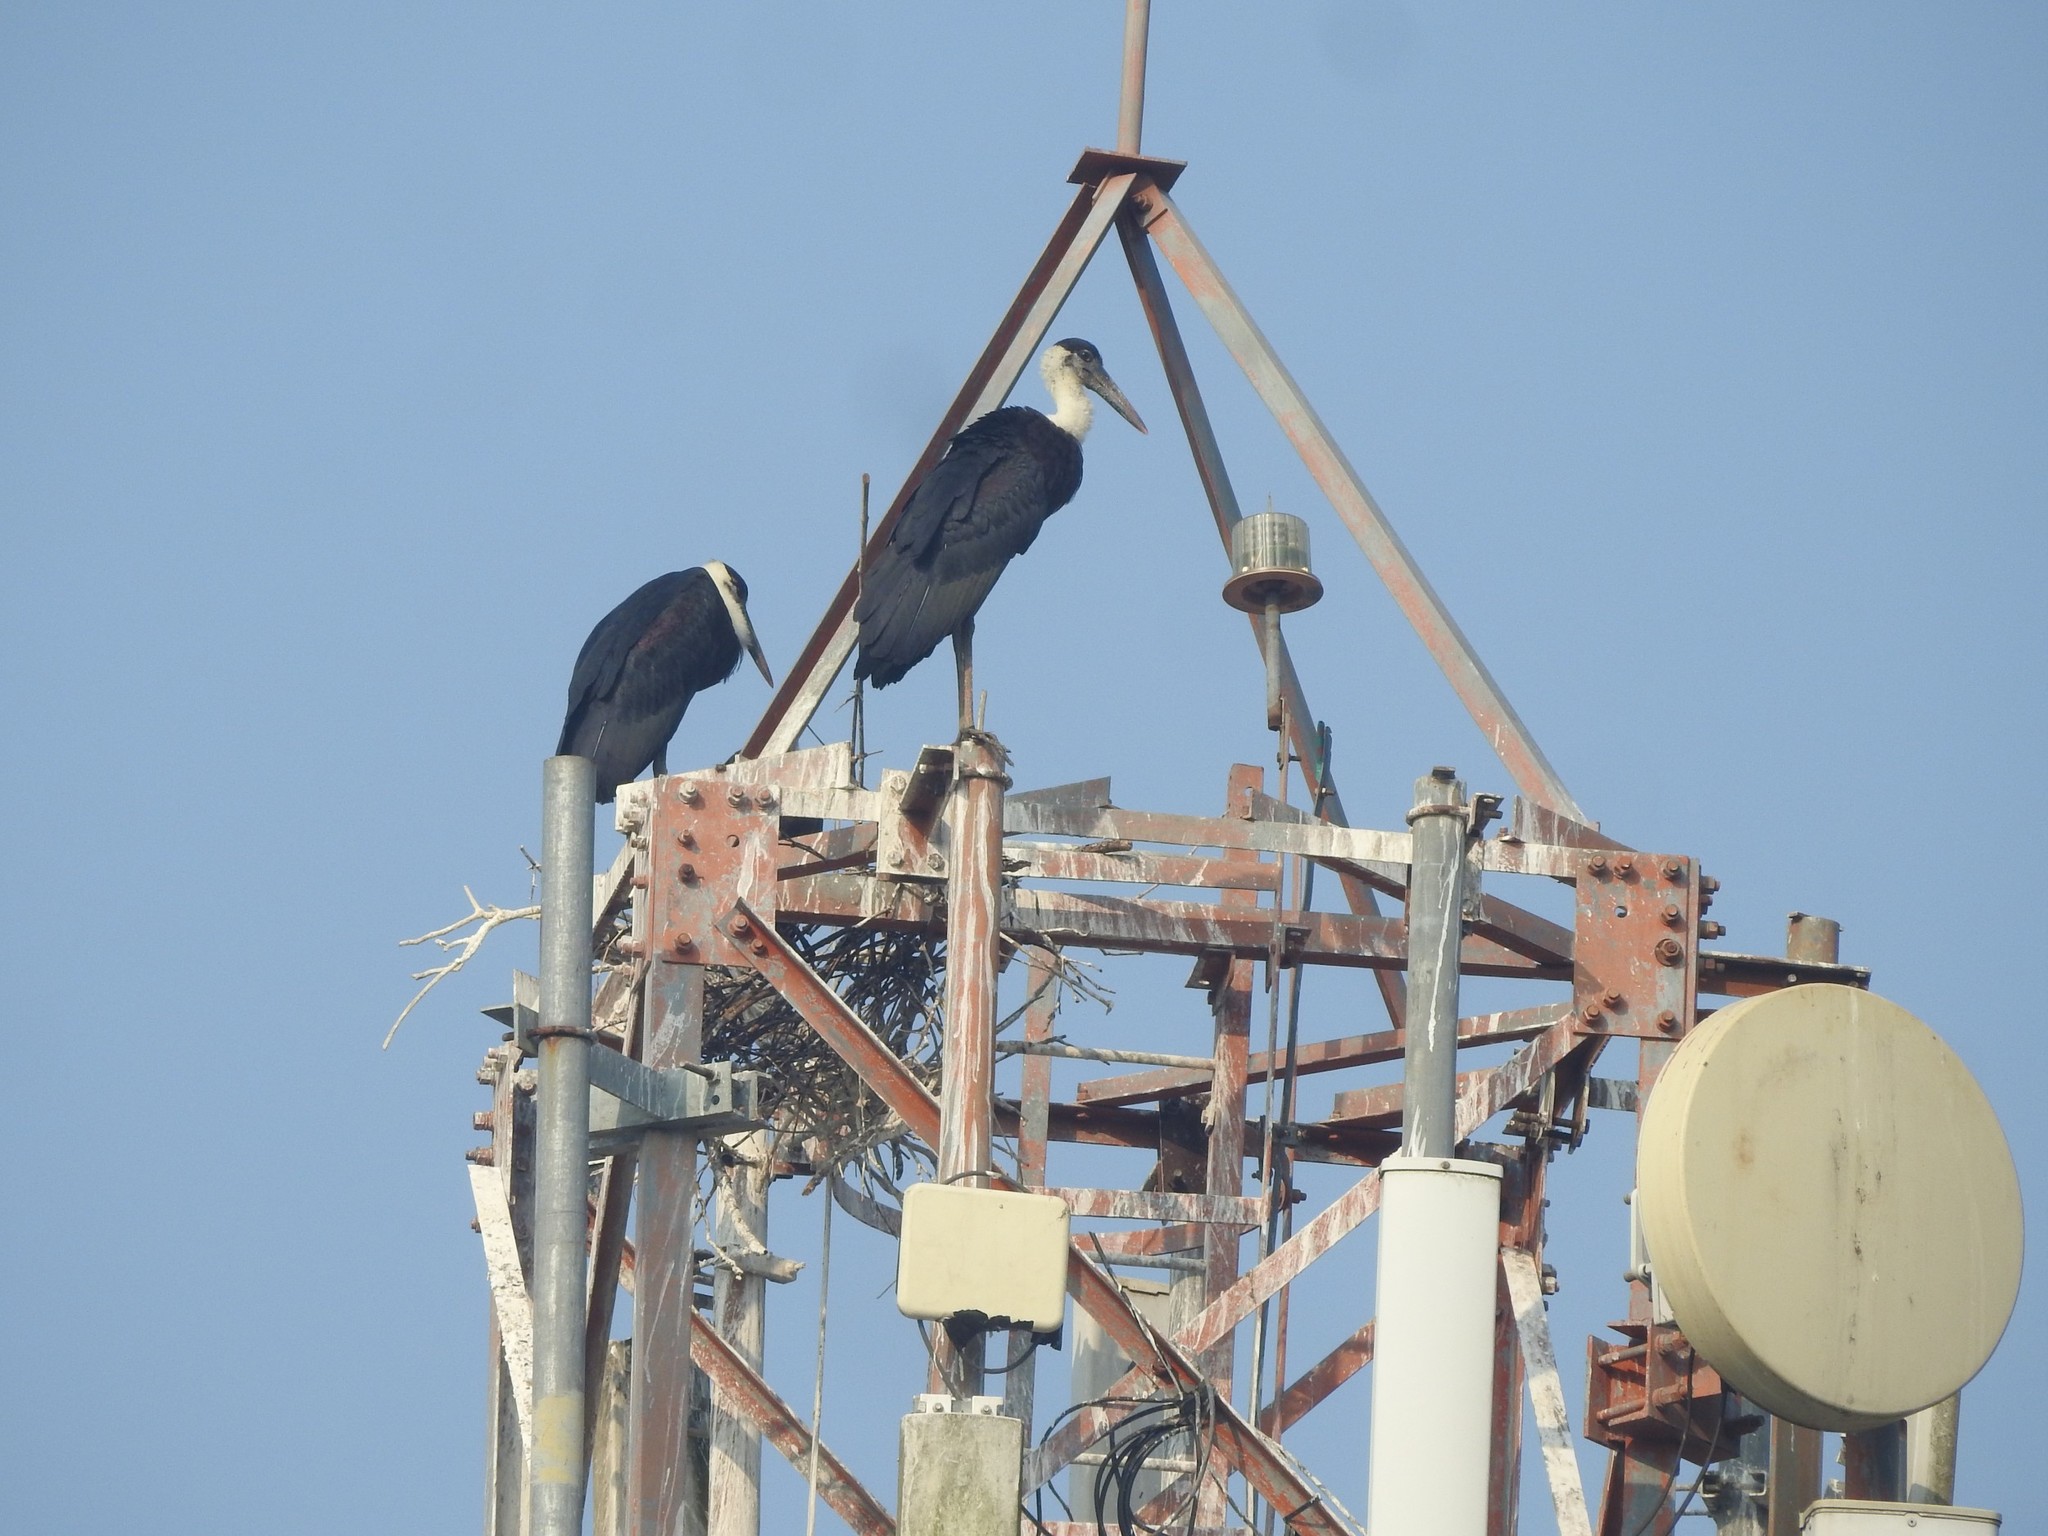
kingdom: Animalia
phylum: Chordata
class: Aves
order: Ciconiiformes
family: Ciconiidae
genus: Ciconia
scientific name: Ciconia episcopus
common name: Woolly-necked stork
